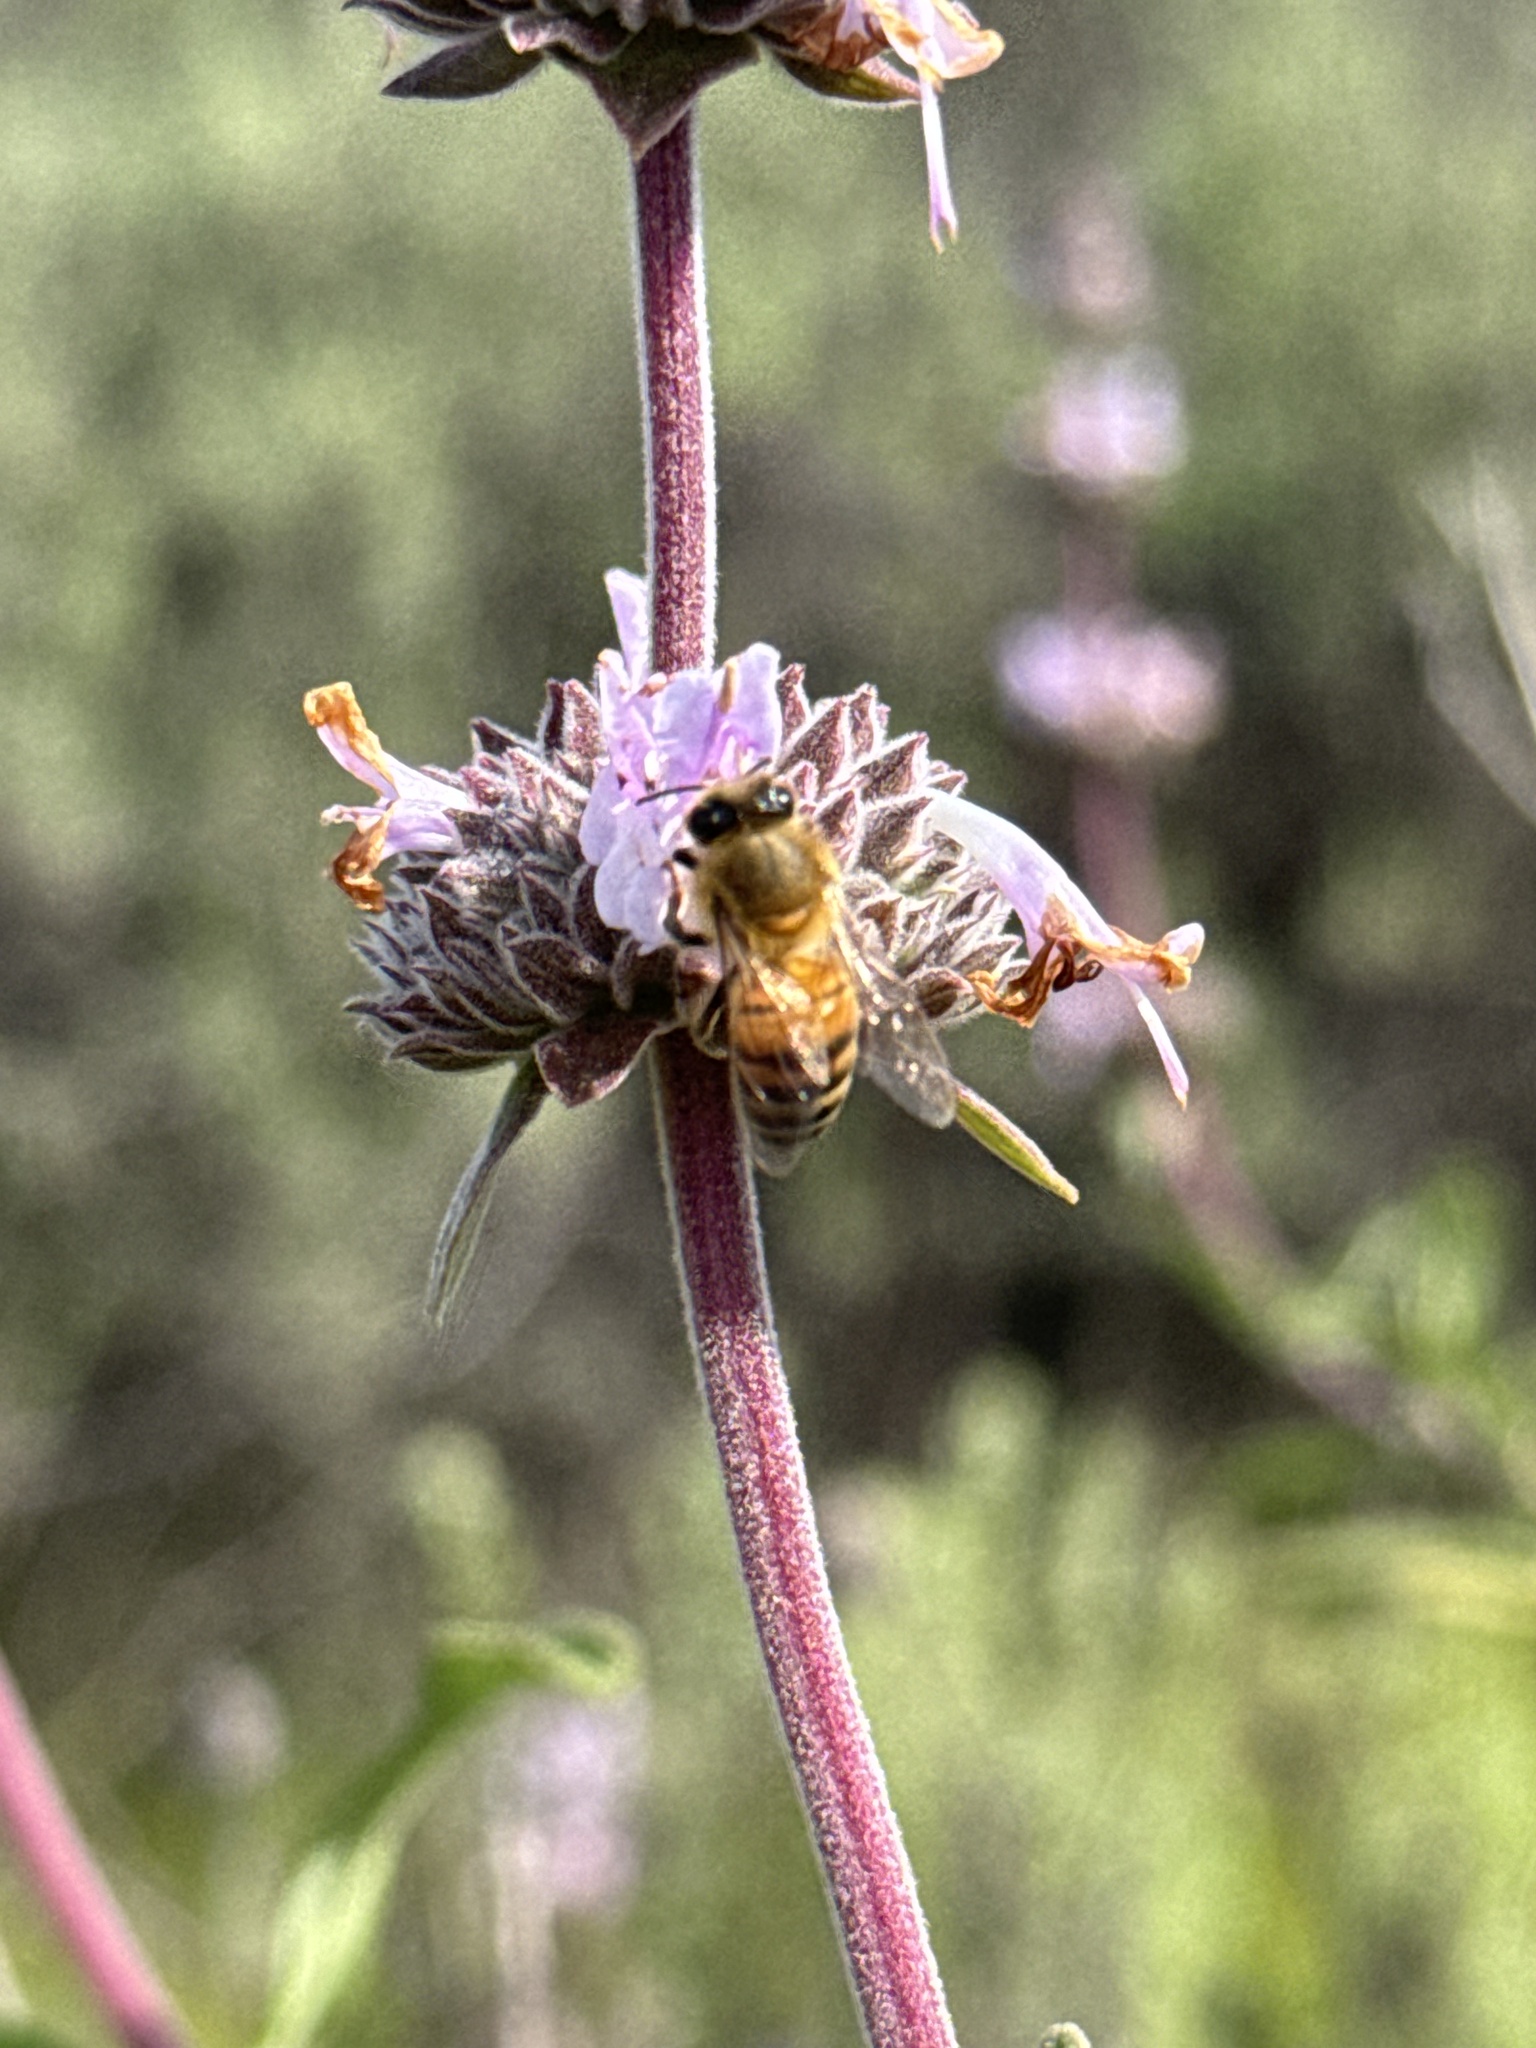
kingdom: Animalia
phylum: Arthropoda
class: Insecta
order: Hymenoptera
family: Apidae
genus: Apis
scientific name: Apis mellifera
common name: Honey bee
